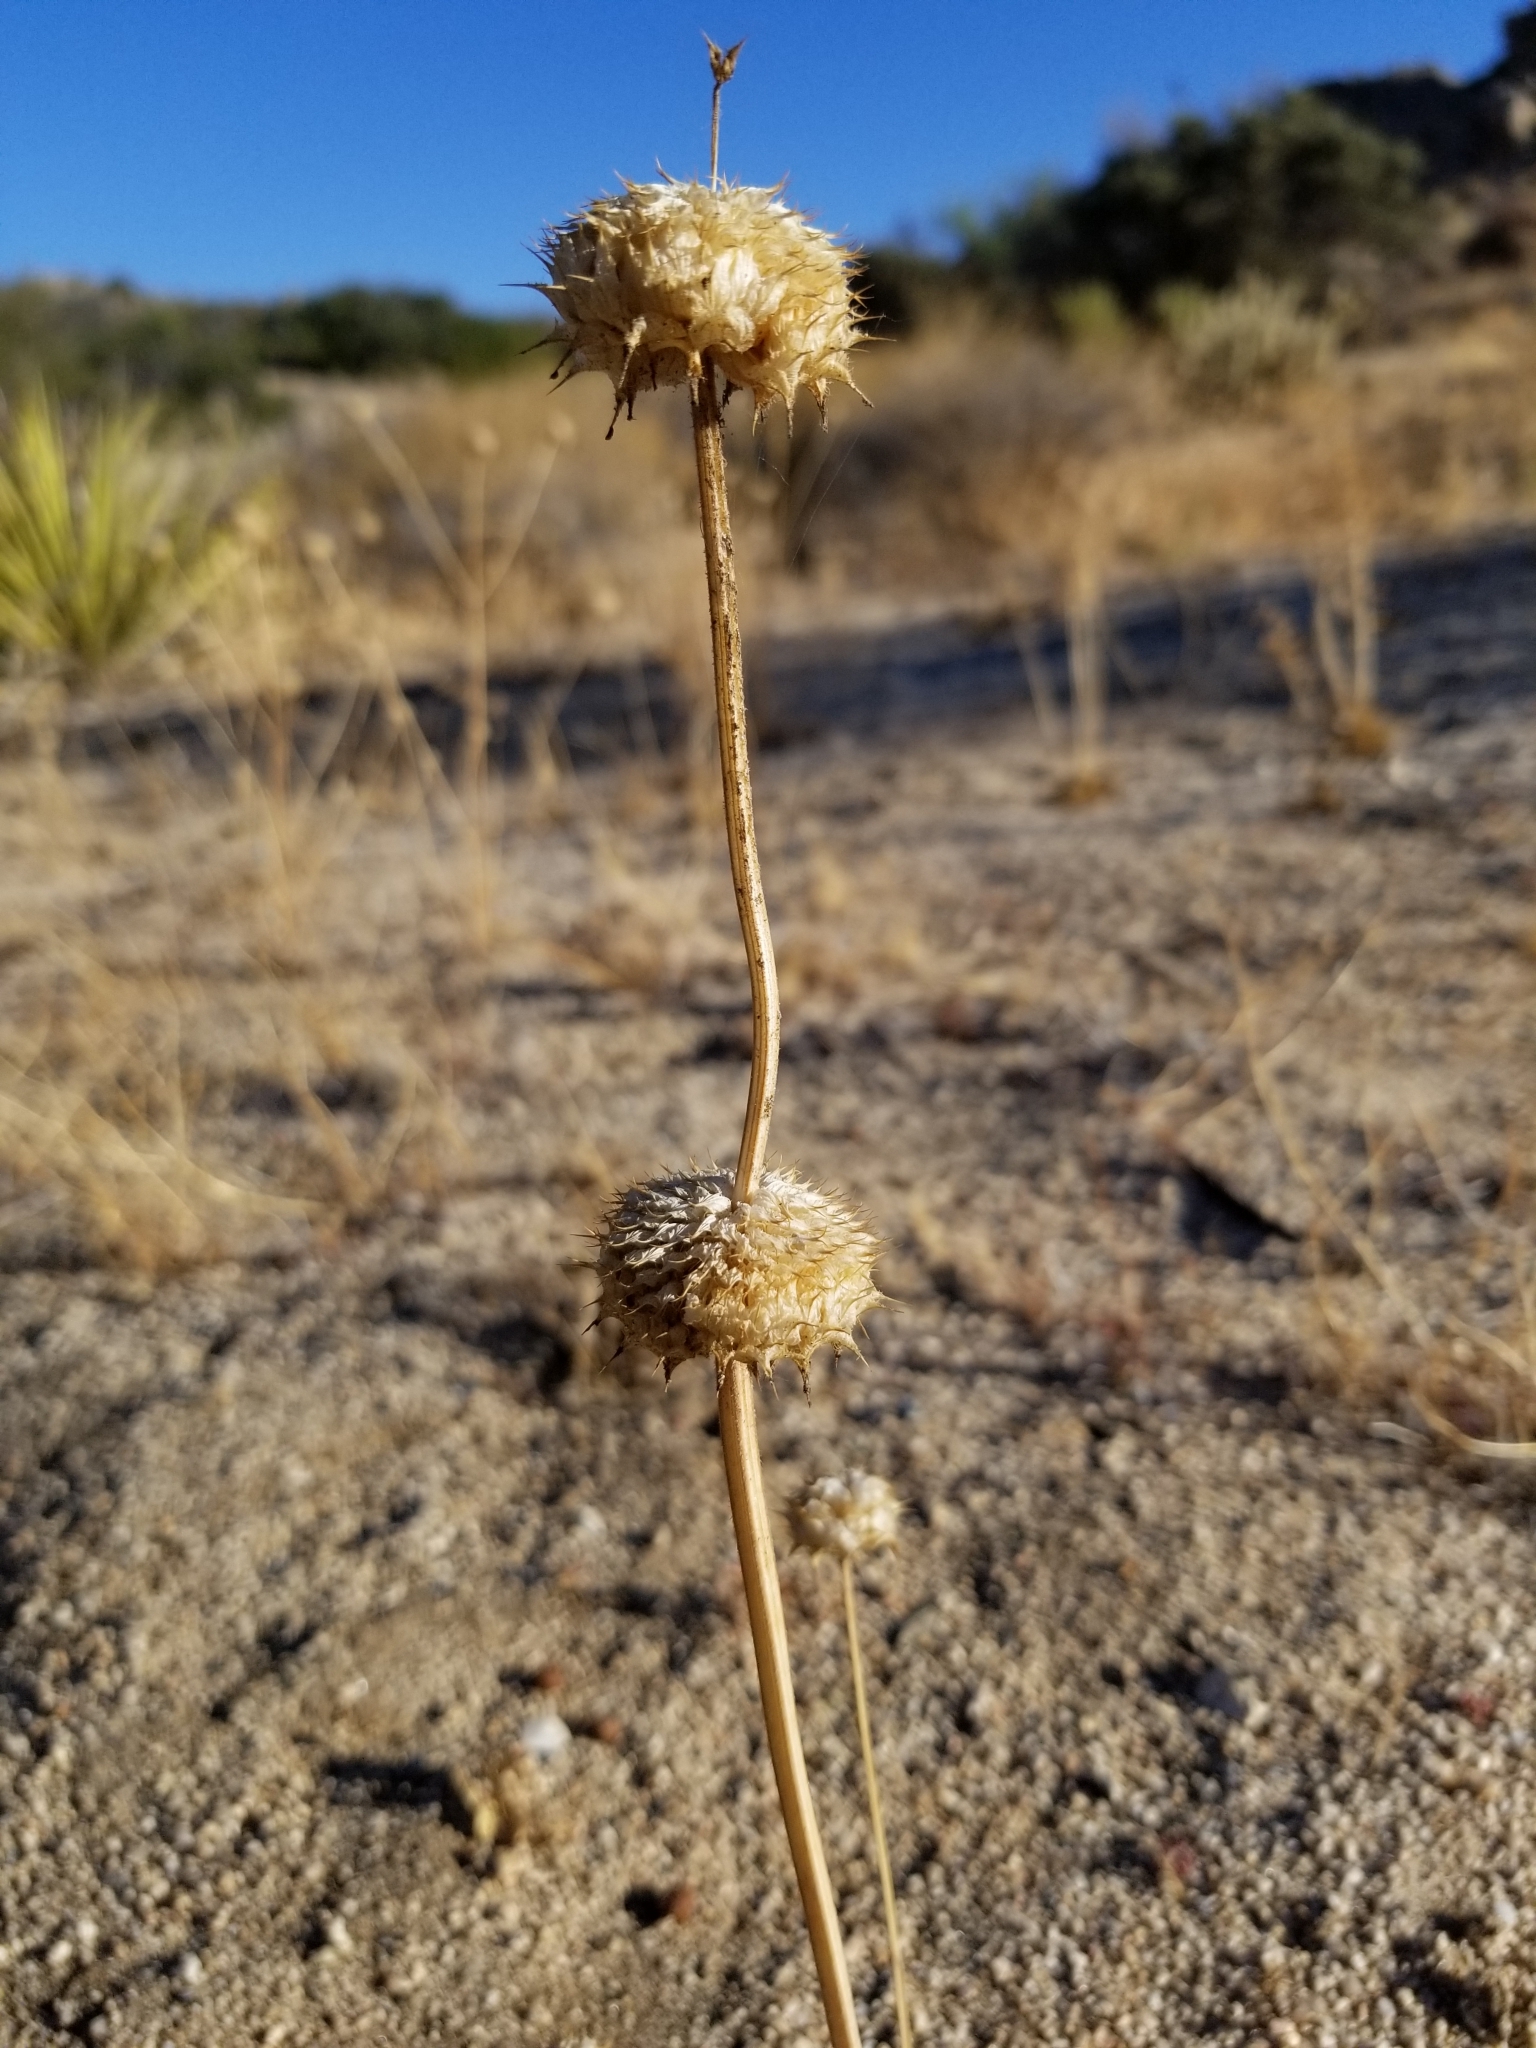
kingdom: Plantae
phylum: Tracheophyta
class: Magnoliopsida
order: Lamiales
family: Lamiaceae
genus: Salvia
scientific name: Salvia columbariae
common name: Chia
